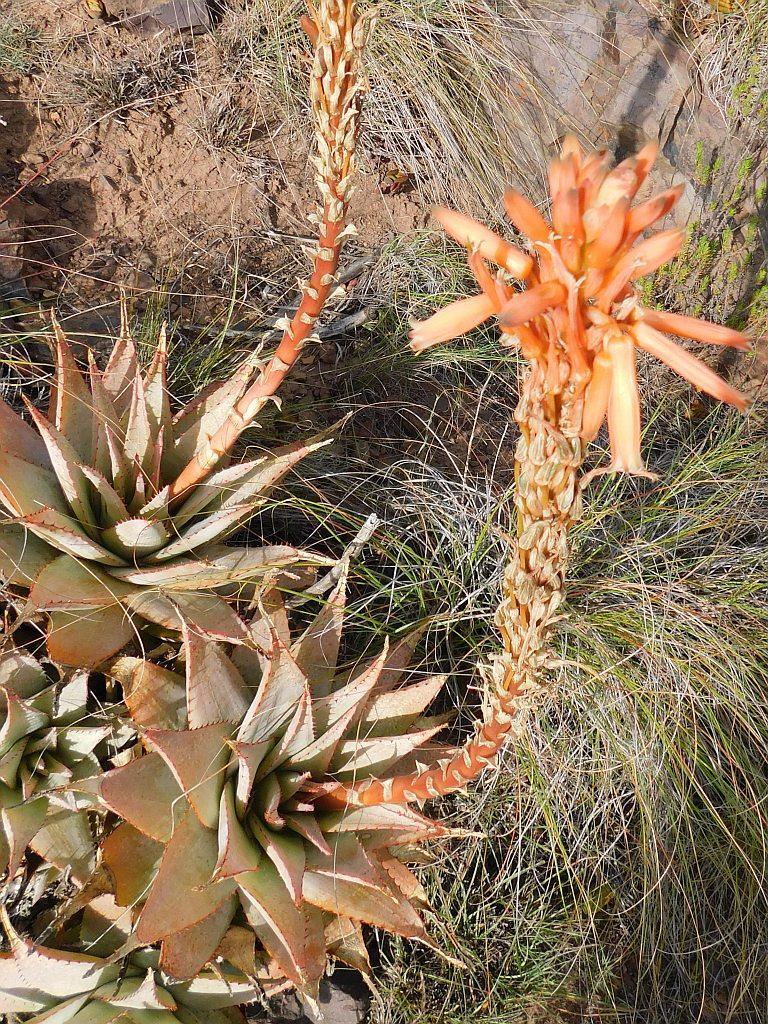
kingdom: Plantae
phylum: Tracheophyta
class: Liliopsida
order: Asparagales
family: Asphodelaceae
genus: Aloe
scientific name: Aloe glauca
